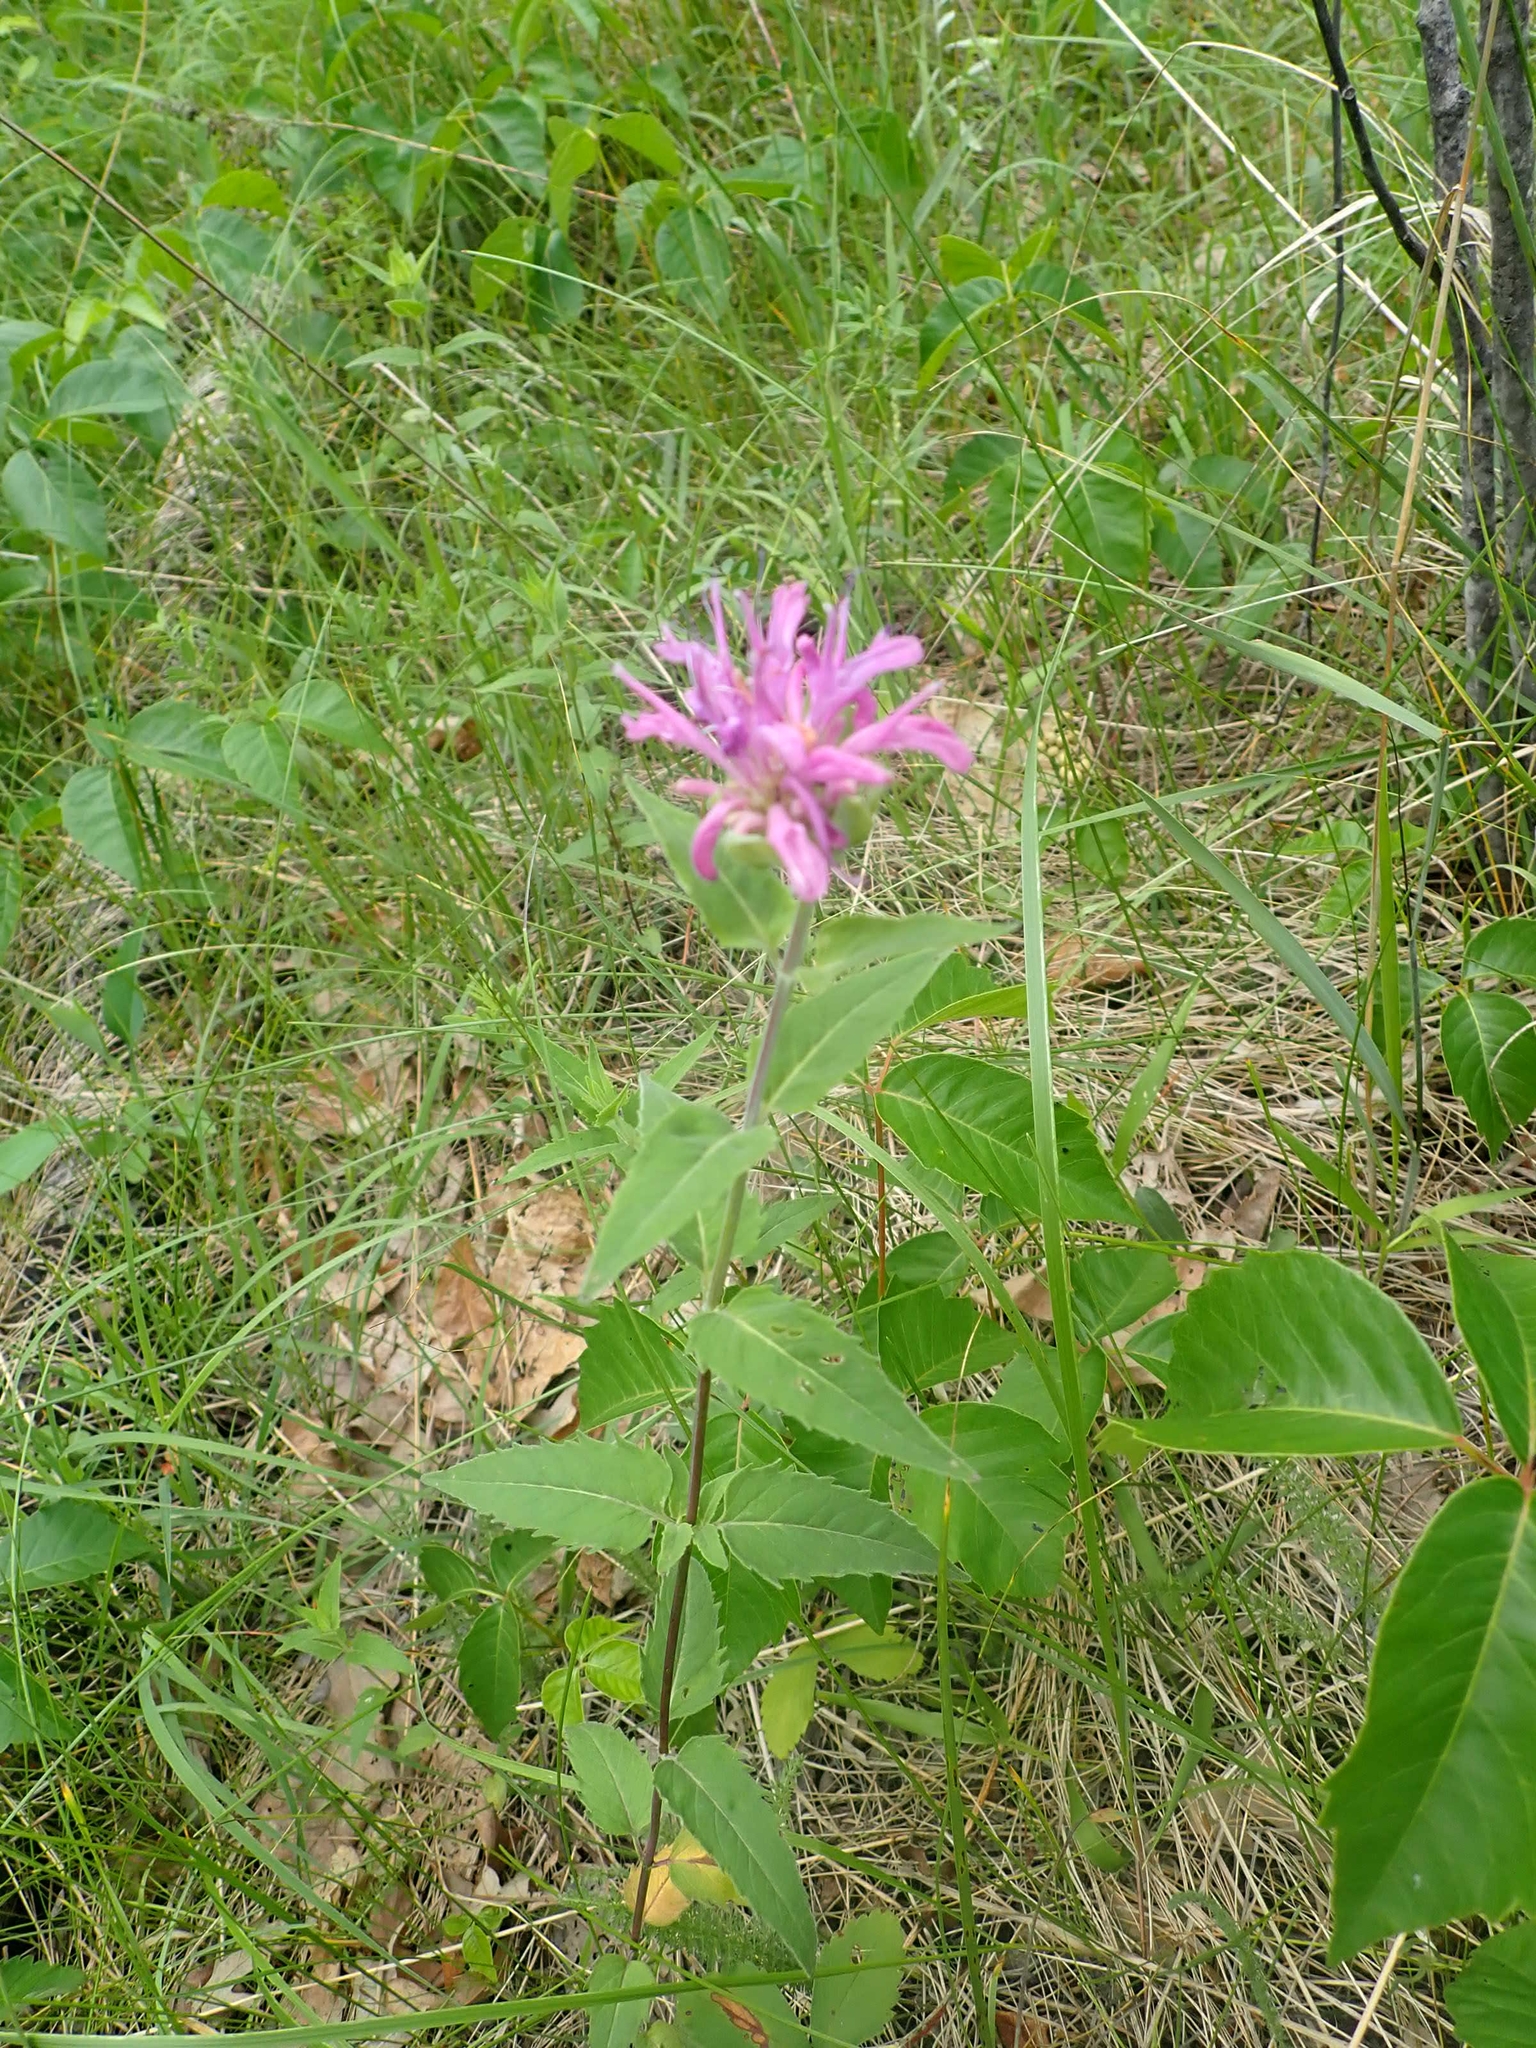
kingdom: Plantae
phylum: Tracheophyta
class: Magnoliopsida
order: Lamiales
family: Lamiaceae
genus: Monarda
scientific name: Monarda fistulosa
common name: Purple beebalm
